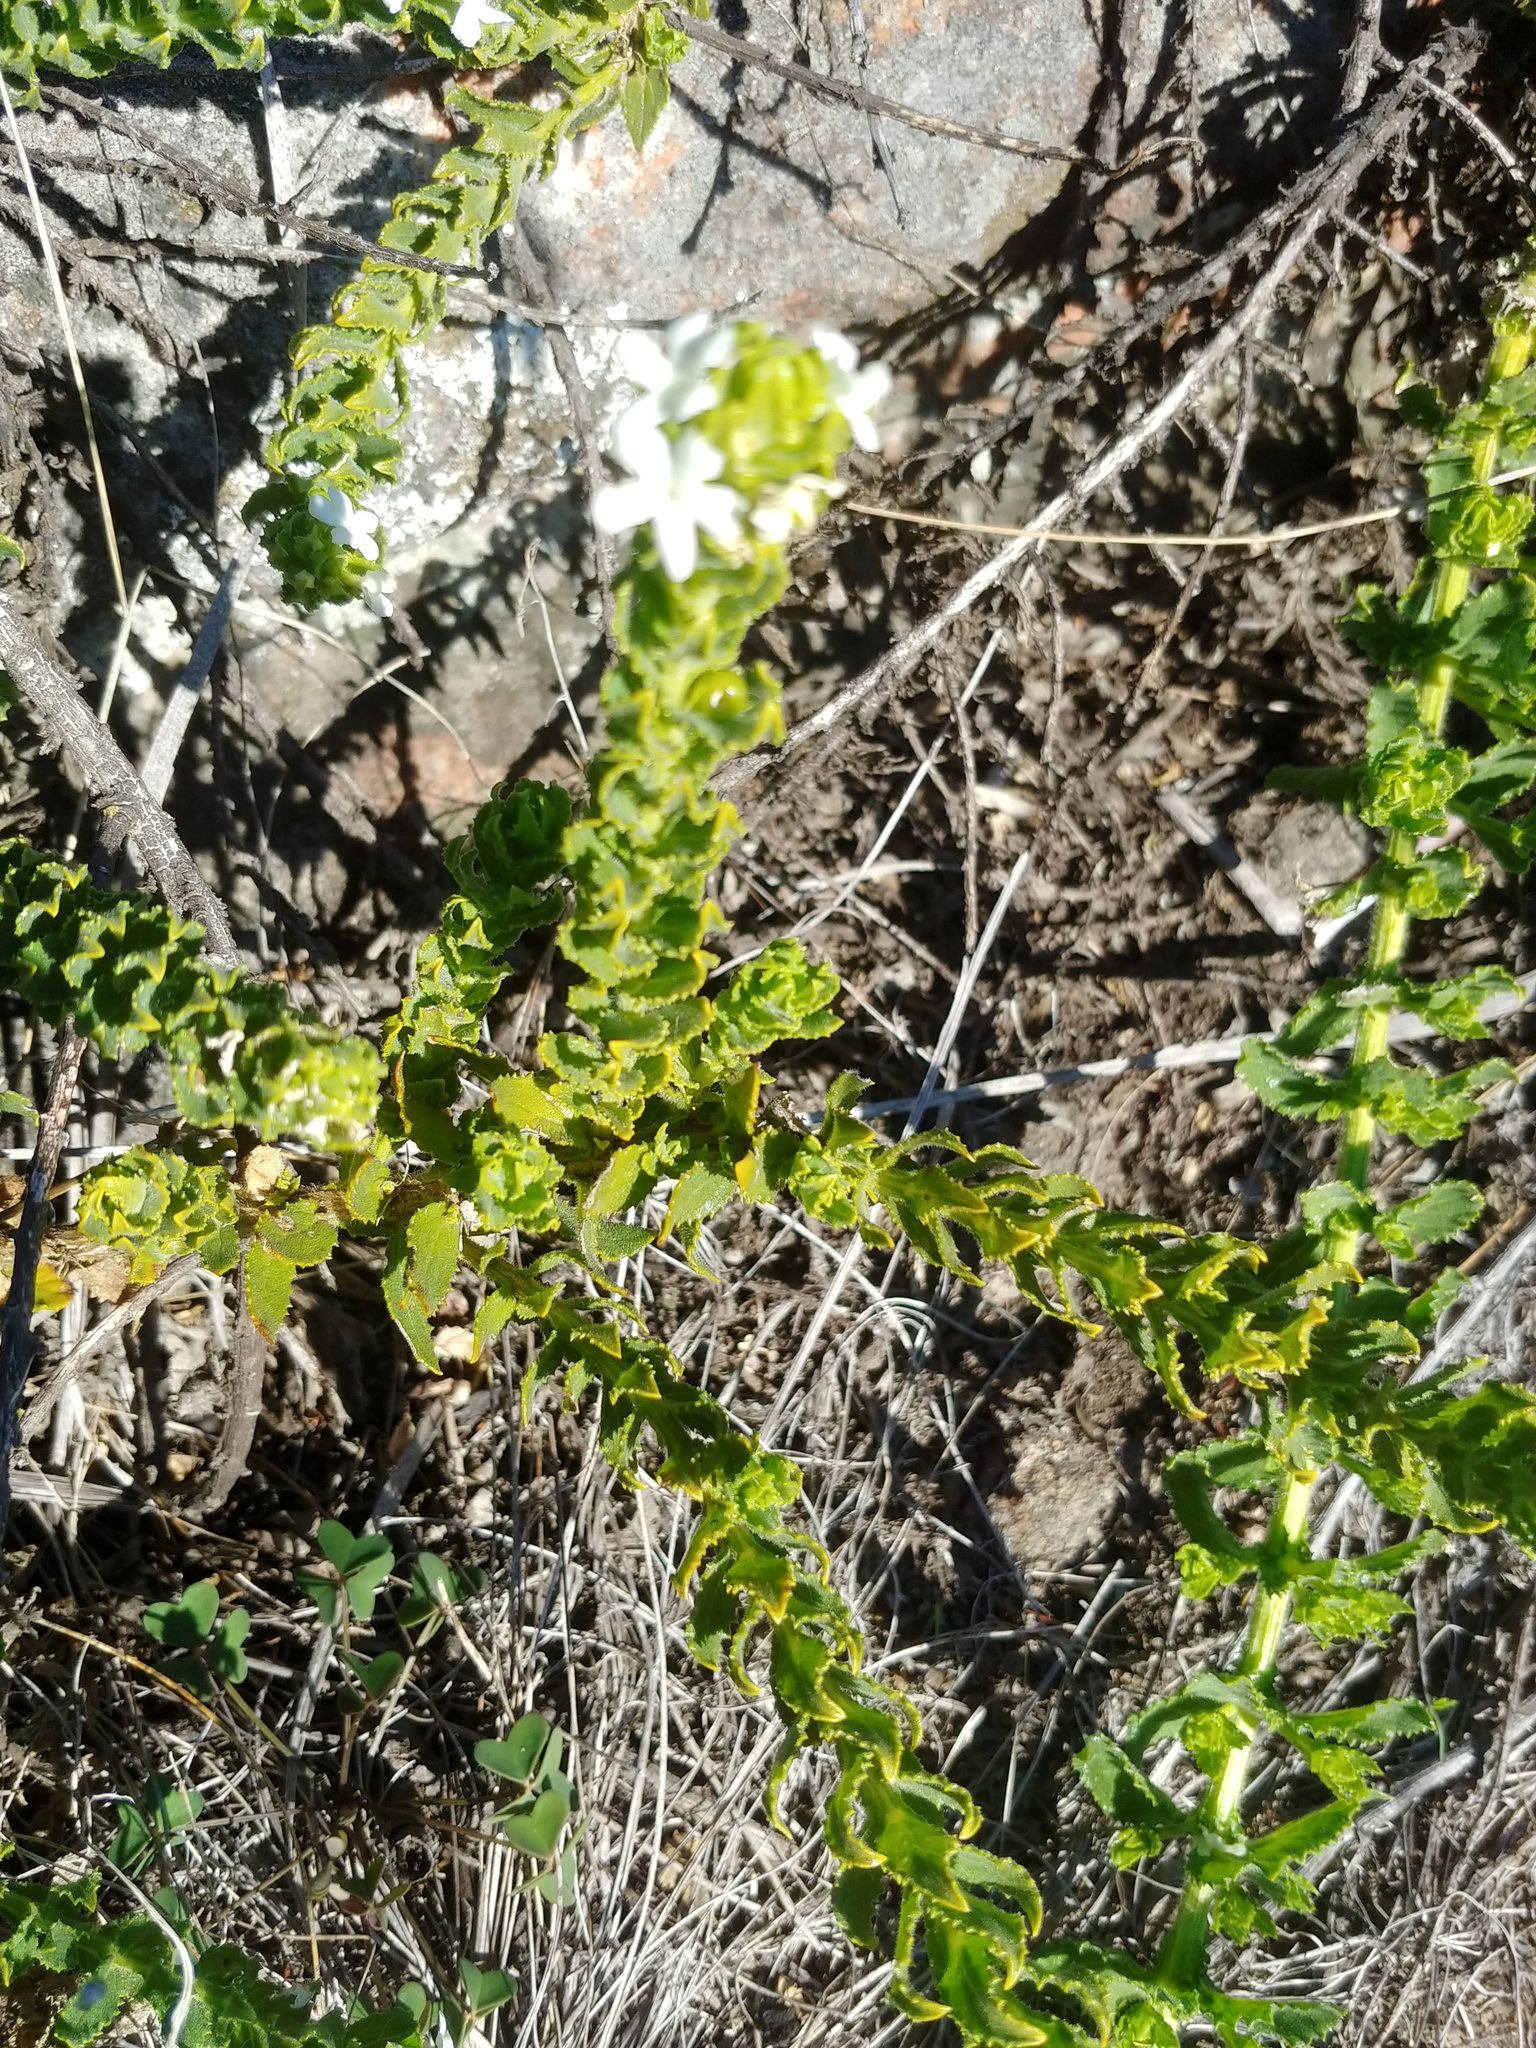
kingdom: Plantae
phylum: Tracheophyta
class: Magnoliopsida
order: Lamiales
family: Scrophulariaceae
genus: Oftia
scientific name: Oftia africana
